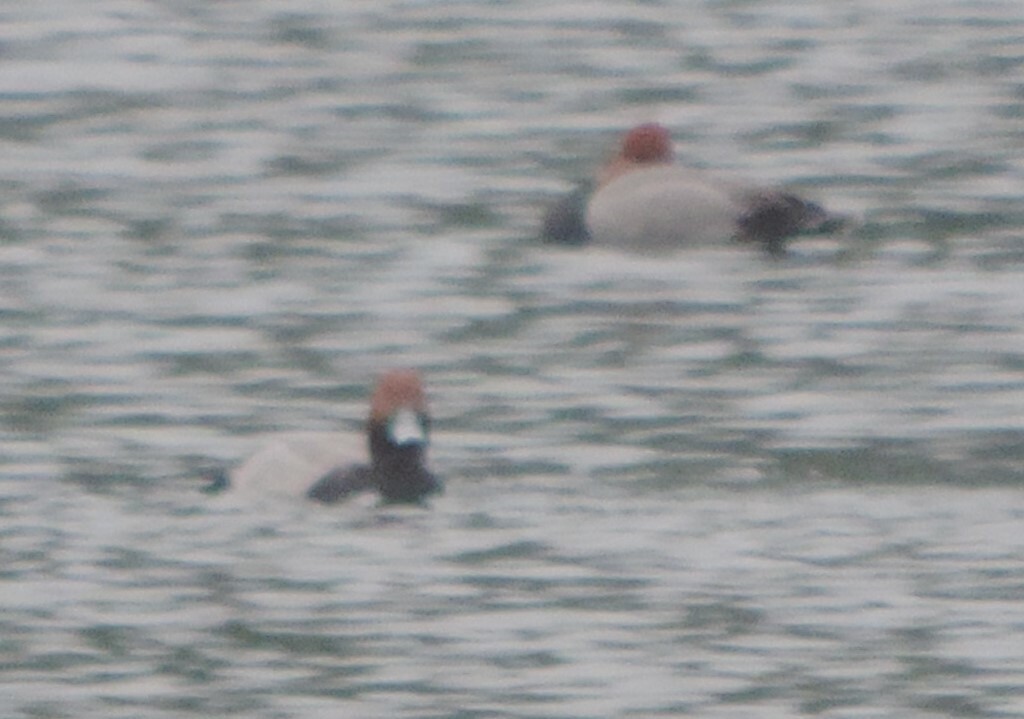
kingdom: Animalia
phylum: Chordata
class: Aves
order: Anseriformes
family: Anatidae
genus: Aythya
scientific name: Aythya americana
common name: Redhead
